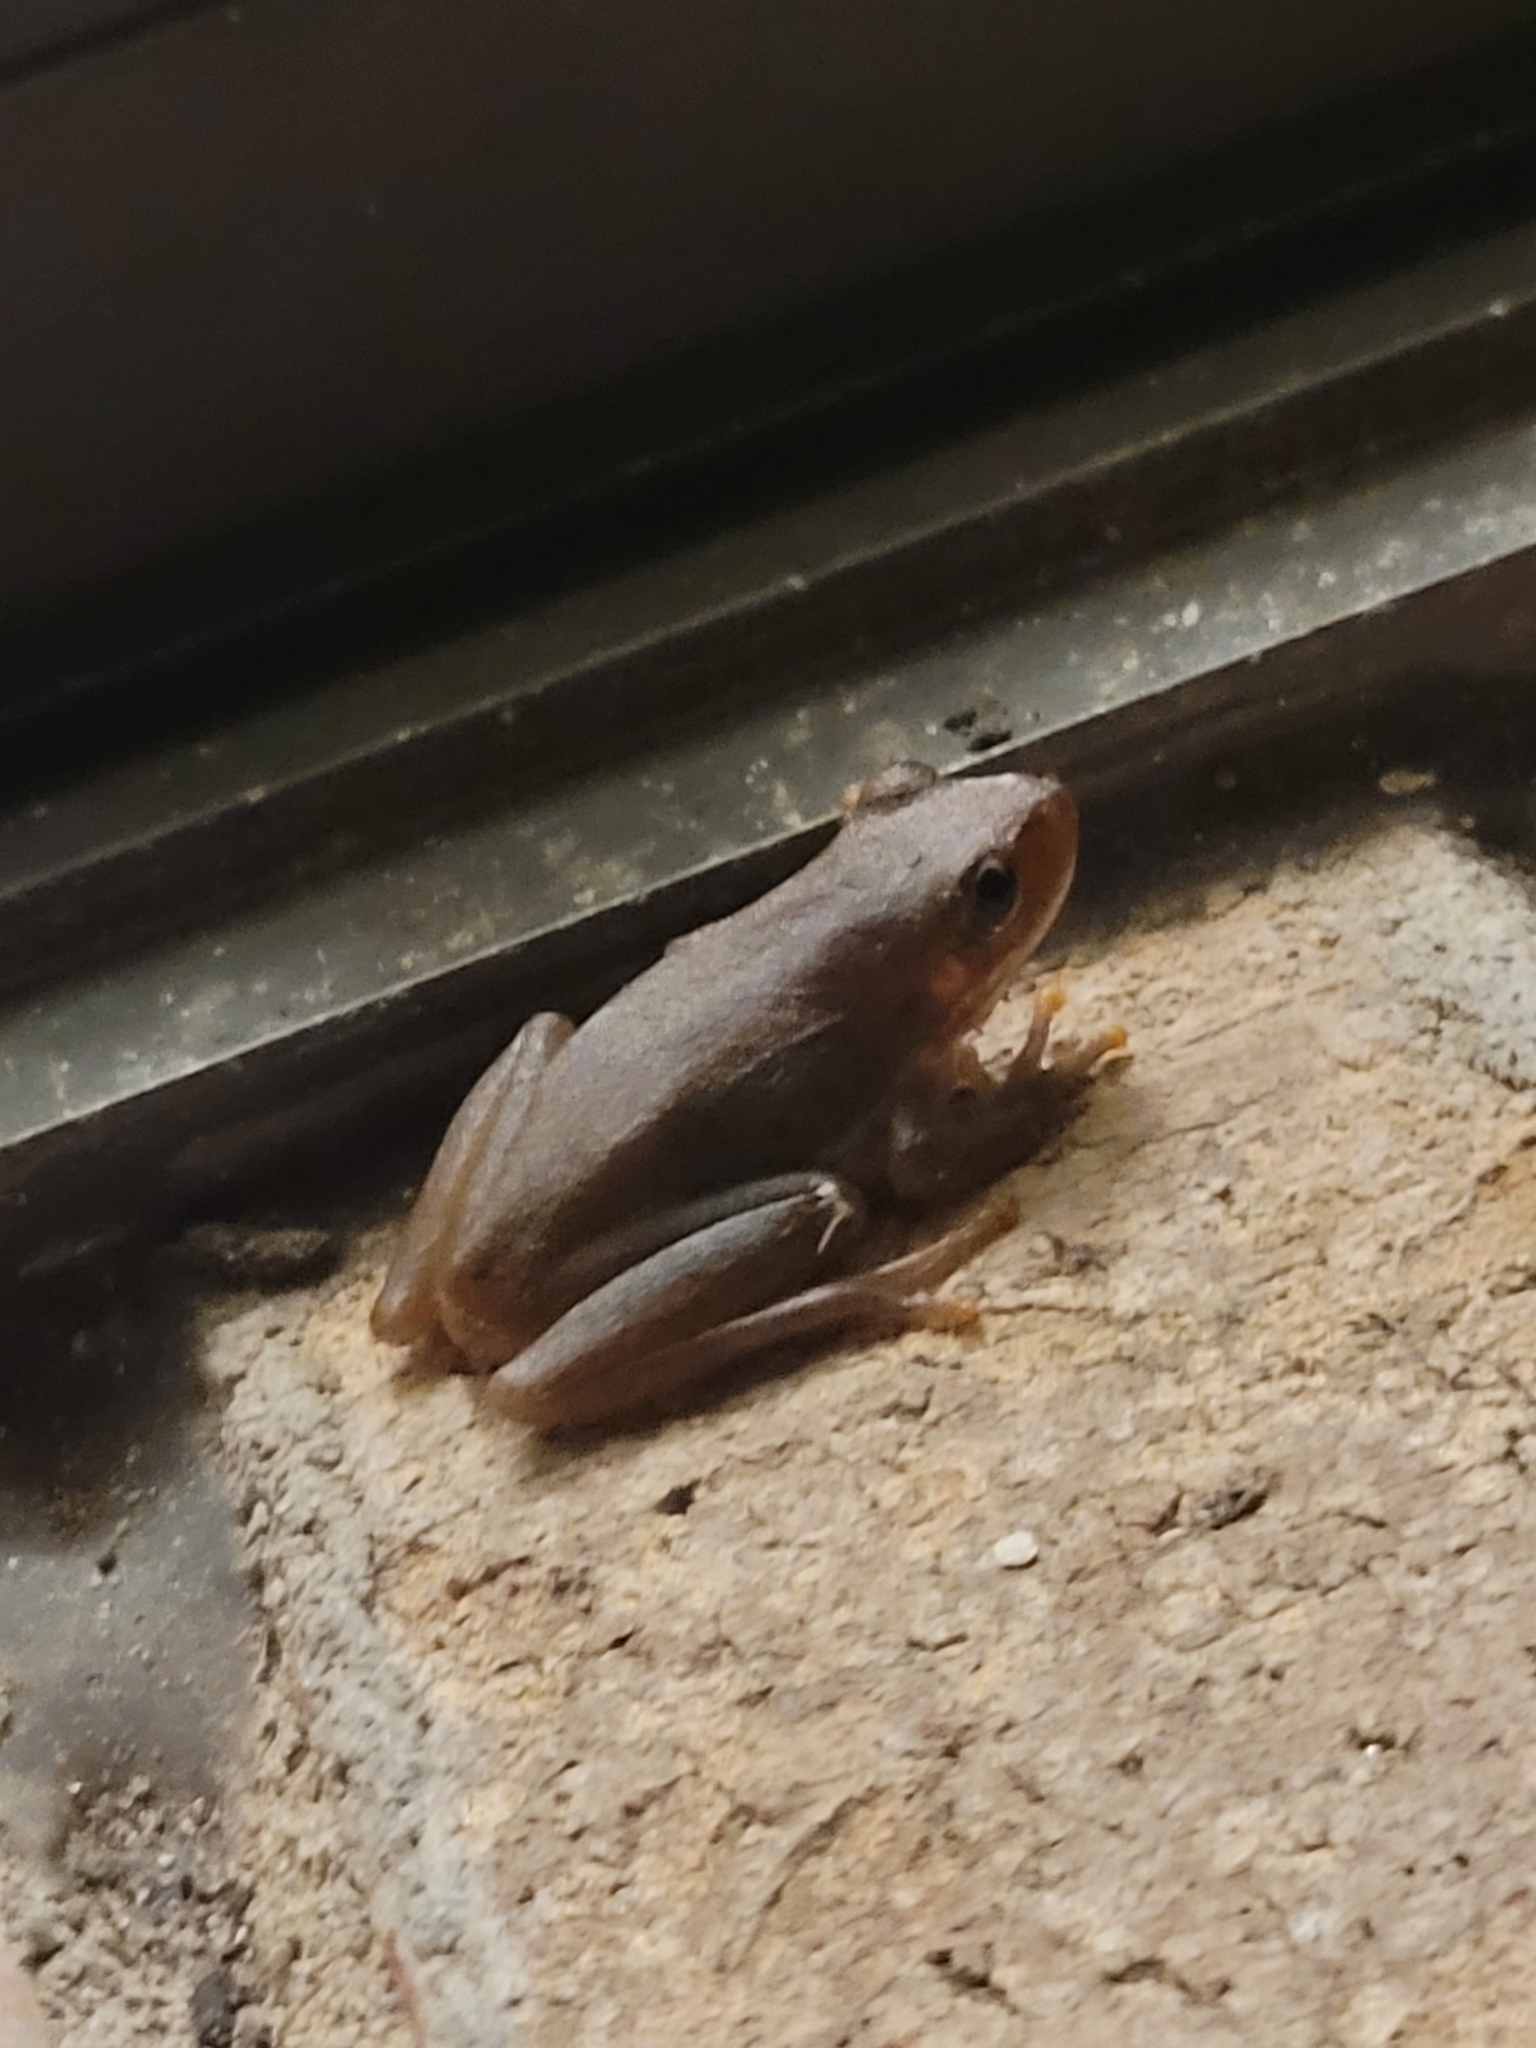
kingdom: Animalia
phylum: Chordata
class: Amphibia
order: Anura
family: Hylidae
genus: Dryophytes
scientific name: Dryophytes squirellus
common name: Squirrel treefrog
